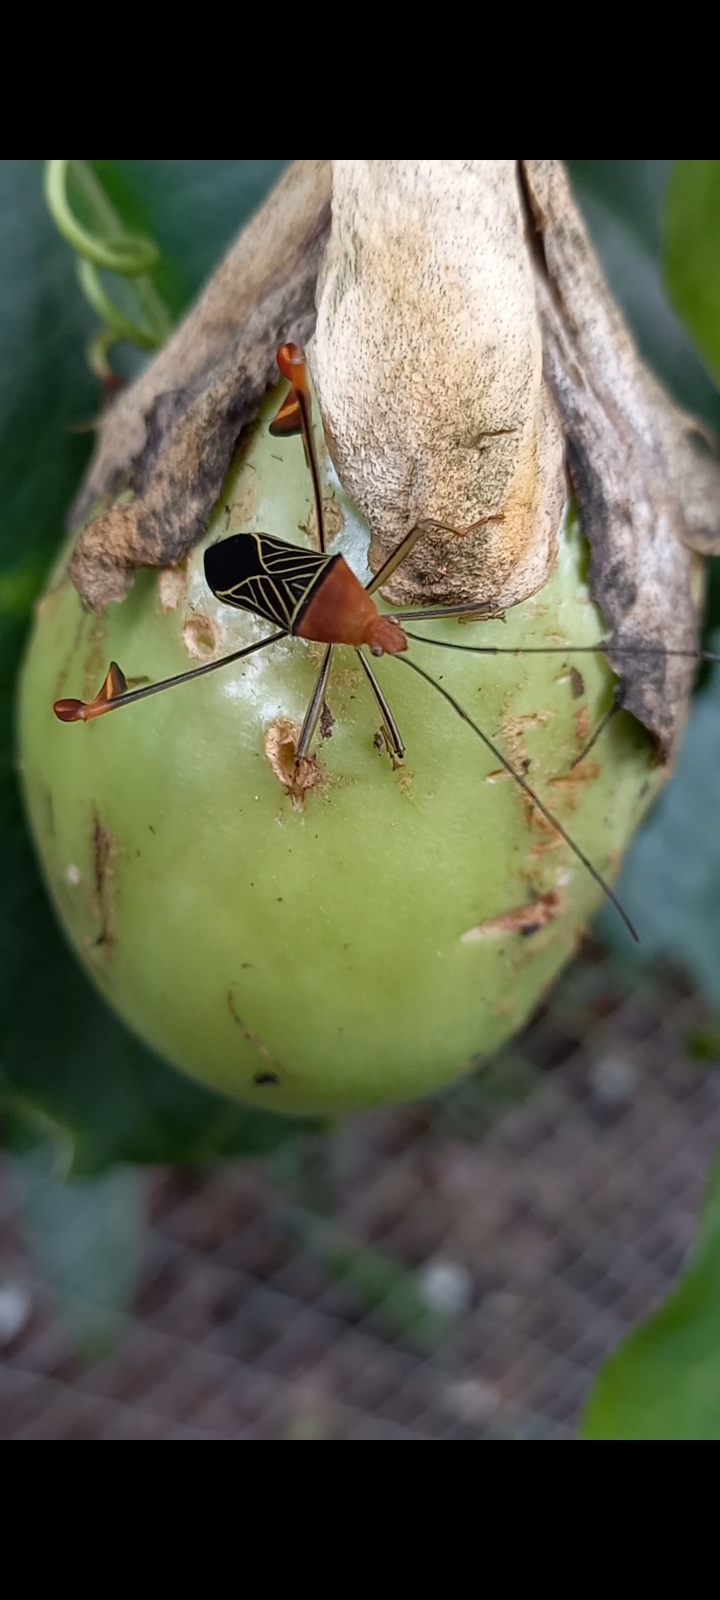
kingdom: Animalia
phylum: Arthropoda
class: Insecta
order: Hemiptera
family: Coreidae
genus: Bitta
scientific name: Bitta
